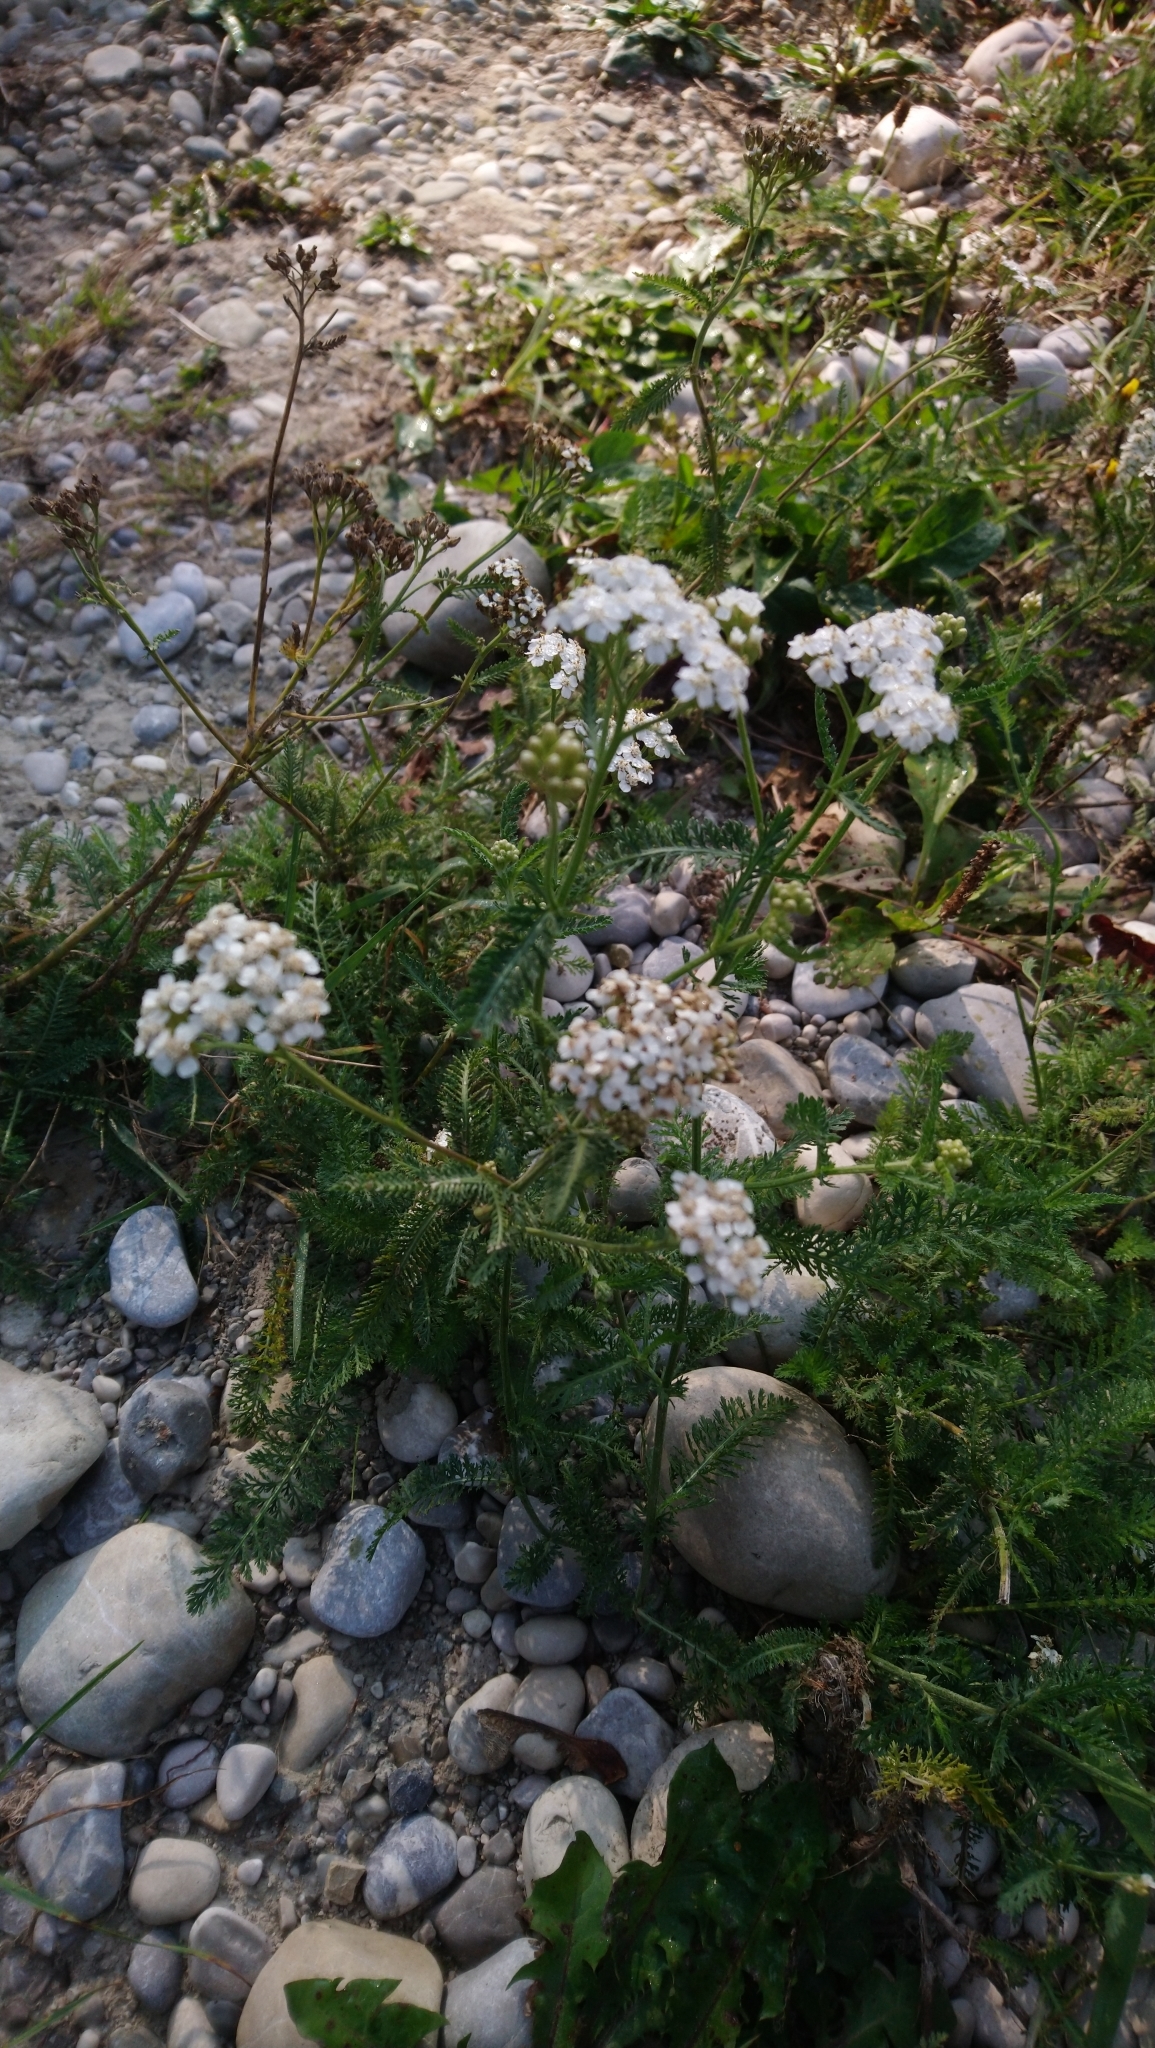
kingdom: Plantae
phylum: Tracheophyta
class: Magnoliopsida
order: Asterales
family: Asteraceae
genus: Achillea
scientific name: Achillea millefolium
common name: Yarrow
